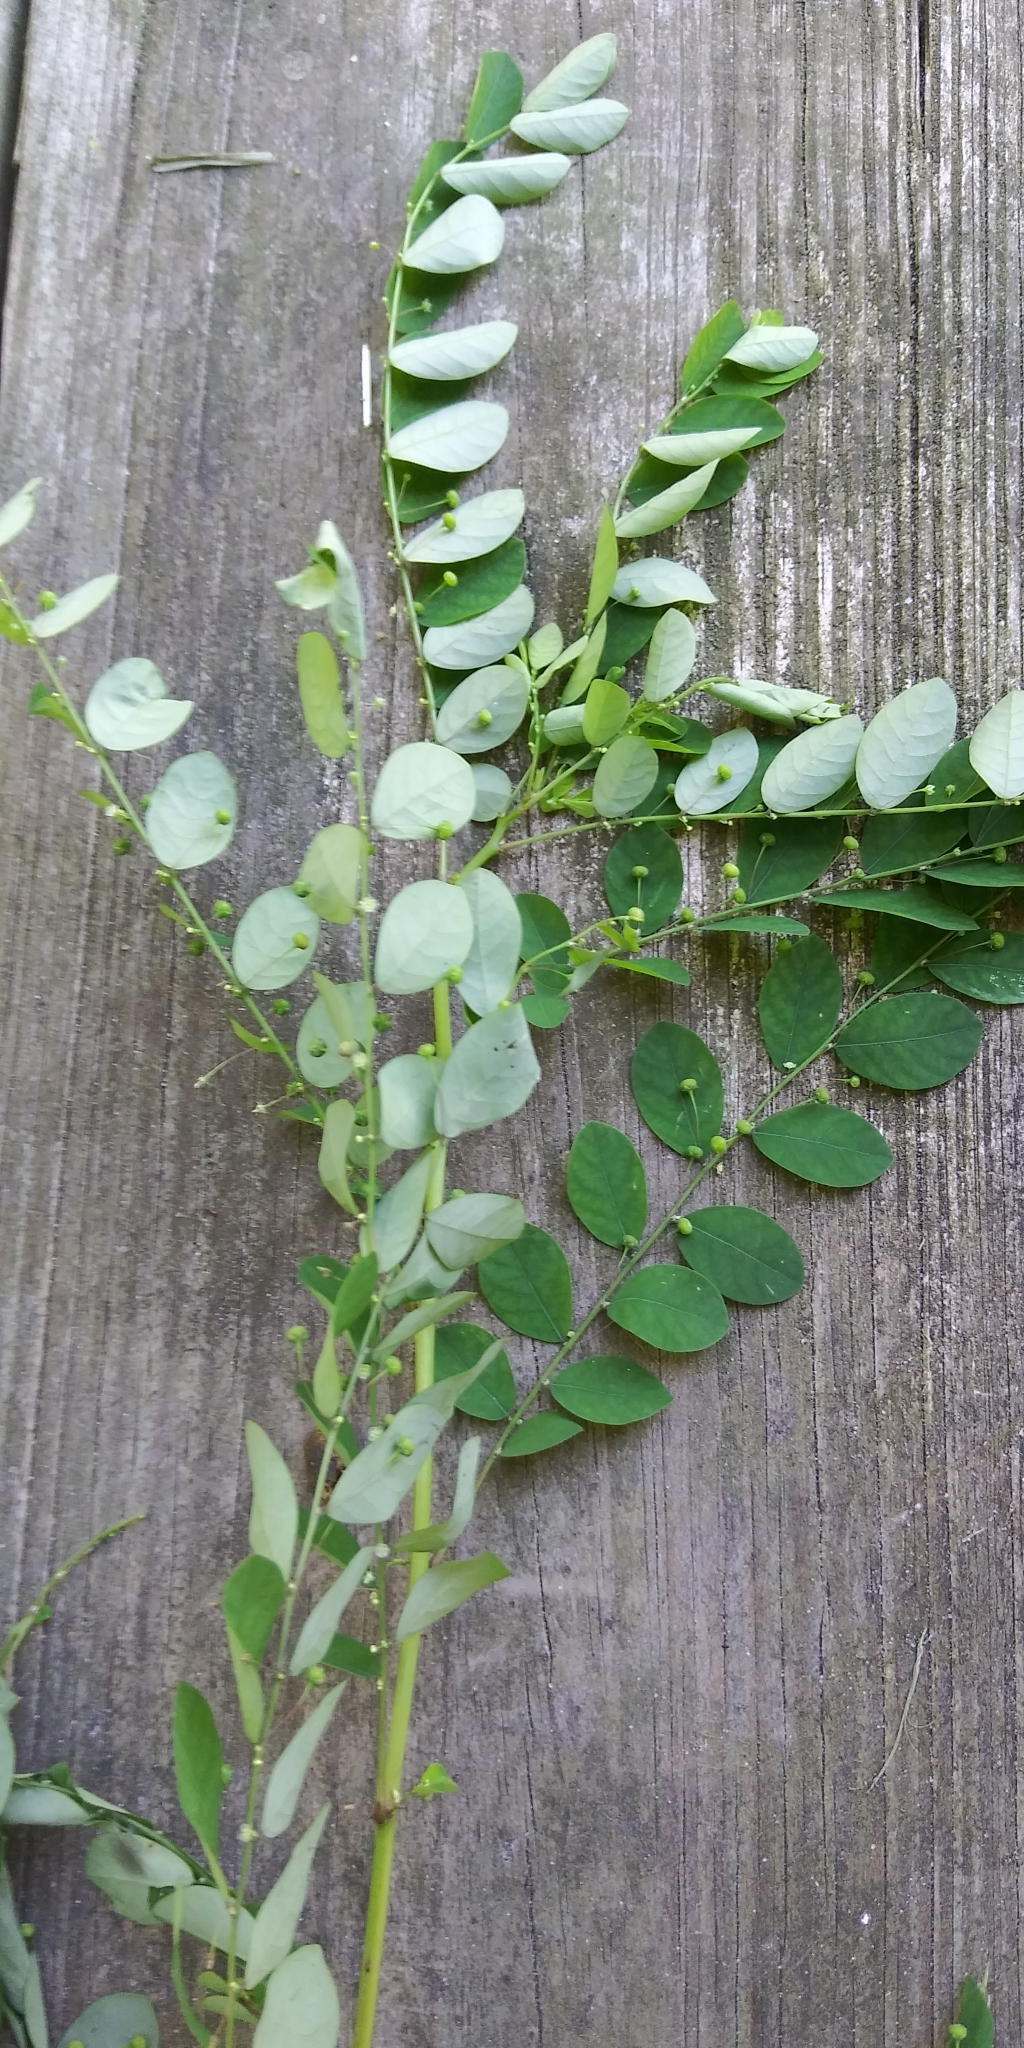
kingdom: Plantae
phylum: Tracheophyta
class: Magnoliopsida
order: Malpighiales
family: Phyllanthaceae
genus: Phyllanthus
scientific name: Phyllanthus tenellus
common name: Mascarene island leaf-flower
